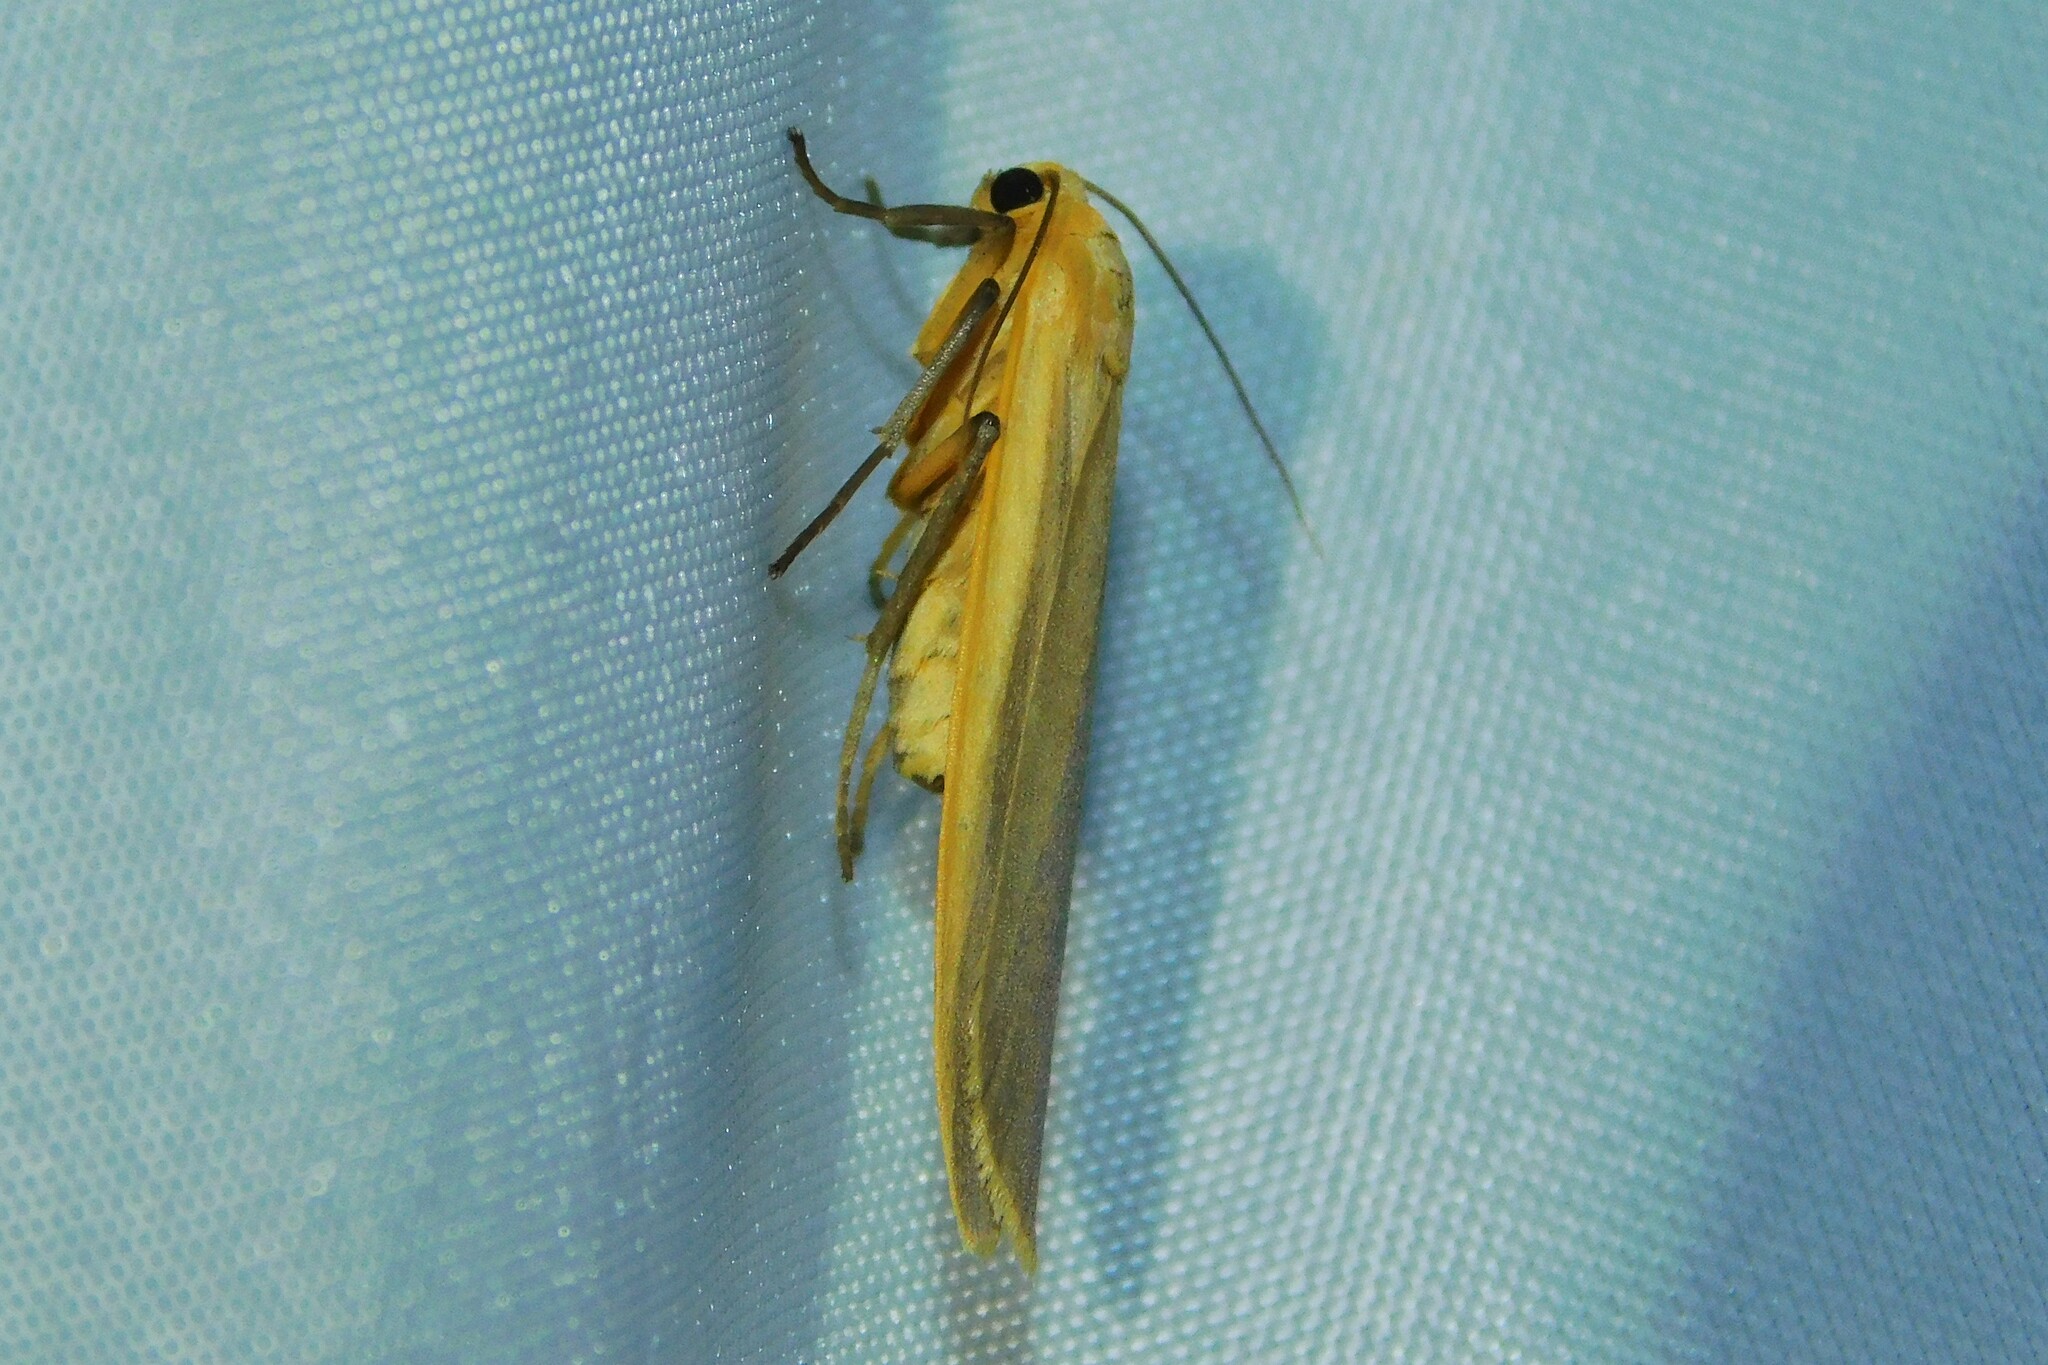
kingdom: Animalia
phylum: Arthropoda
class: Insecta
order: Lepidoptera
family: Erebidae
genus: Katha
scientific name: Katha depressa
